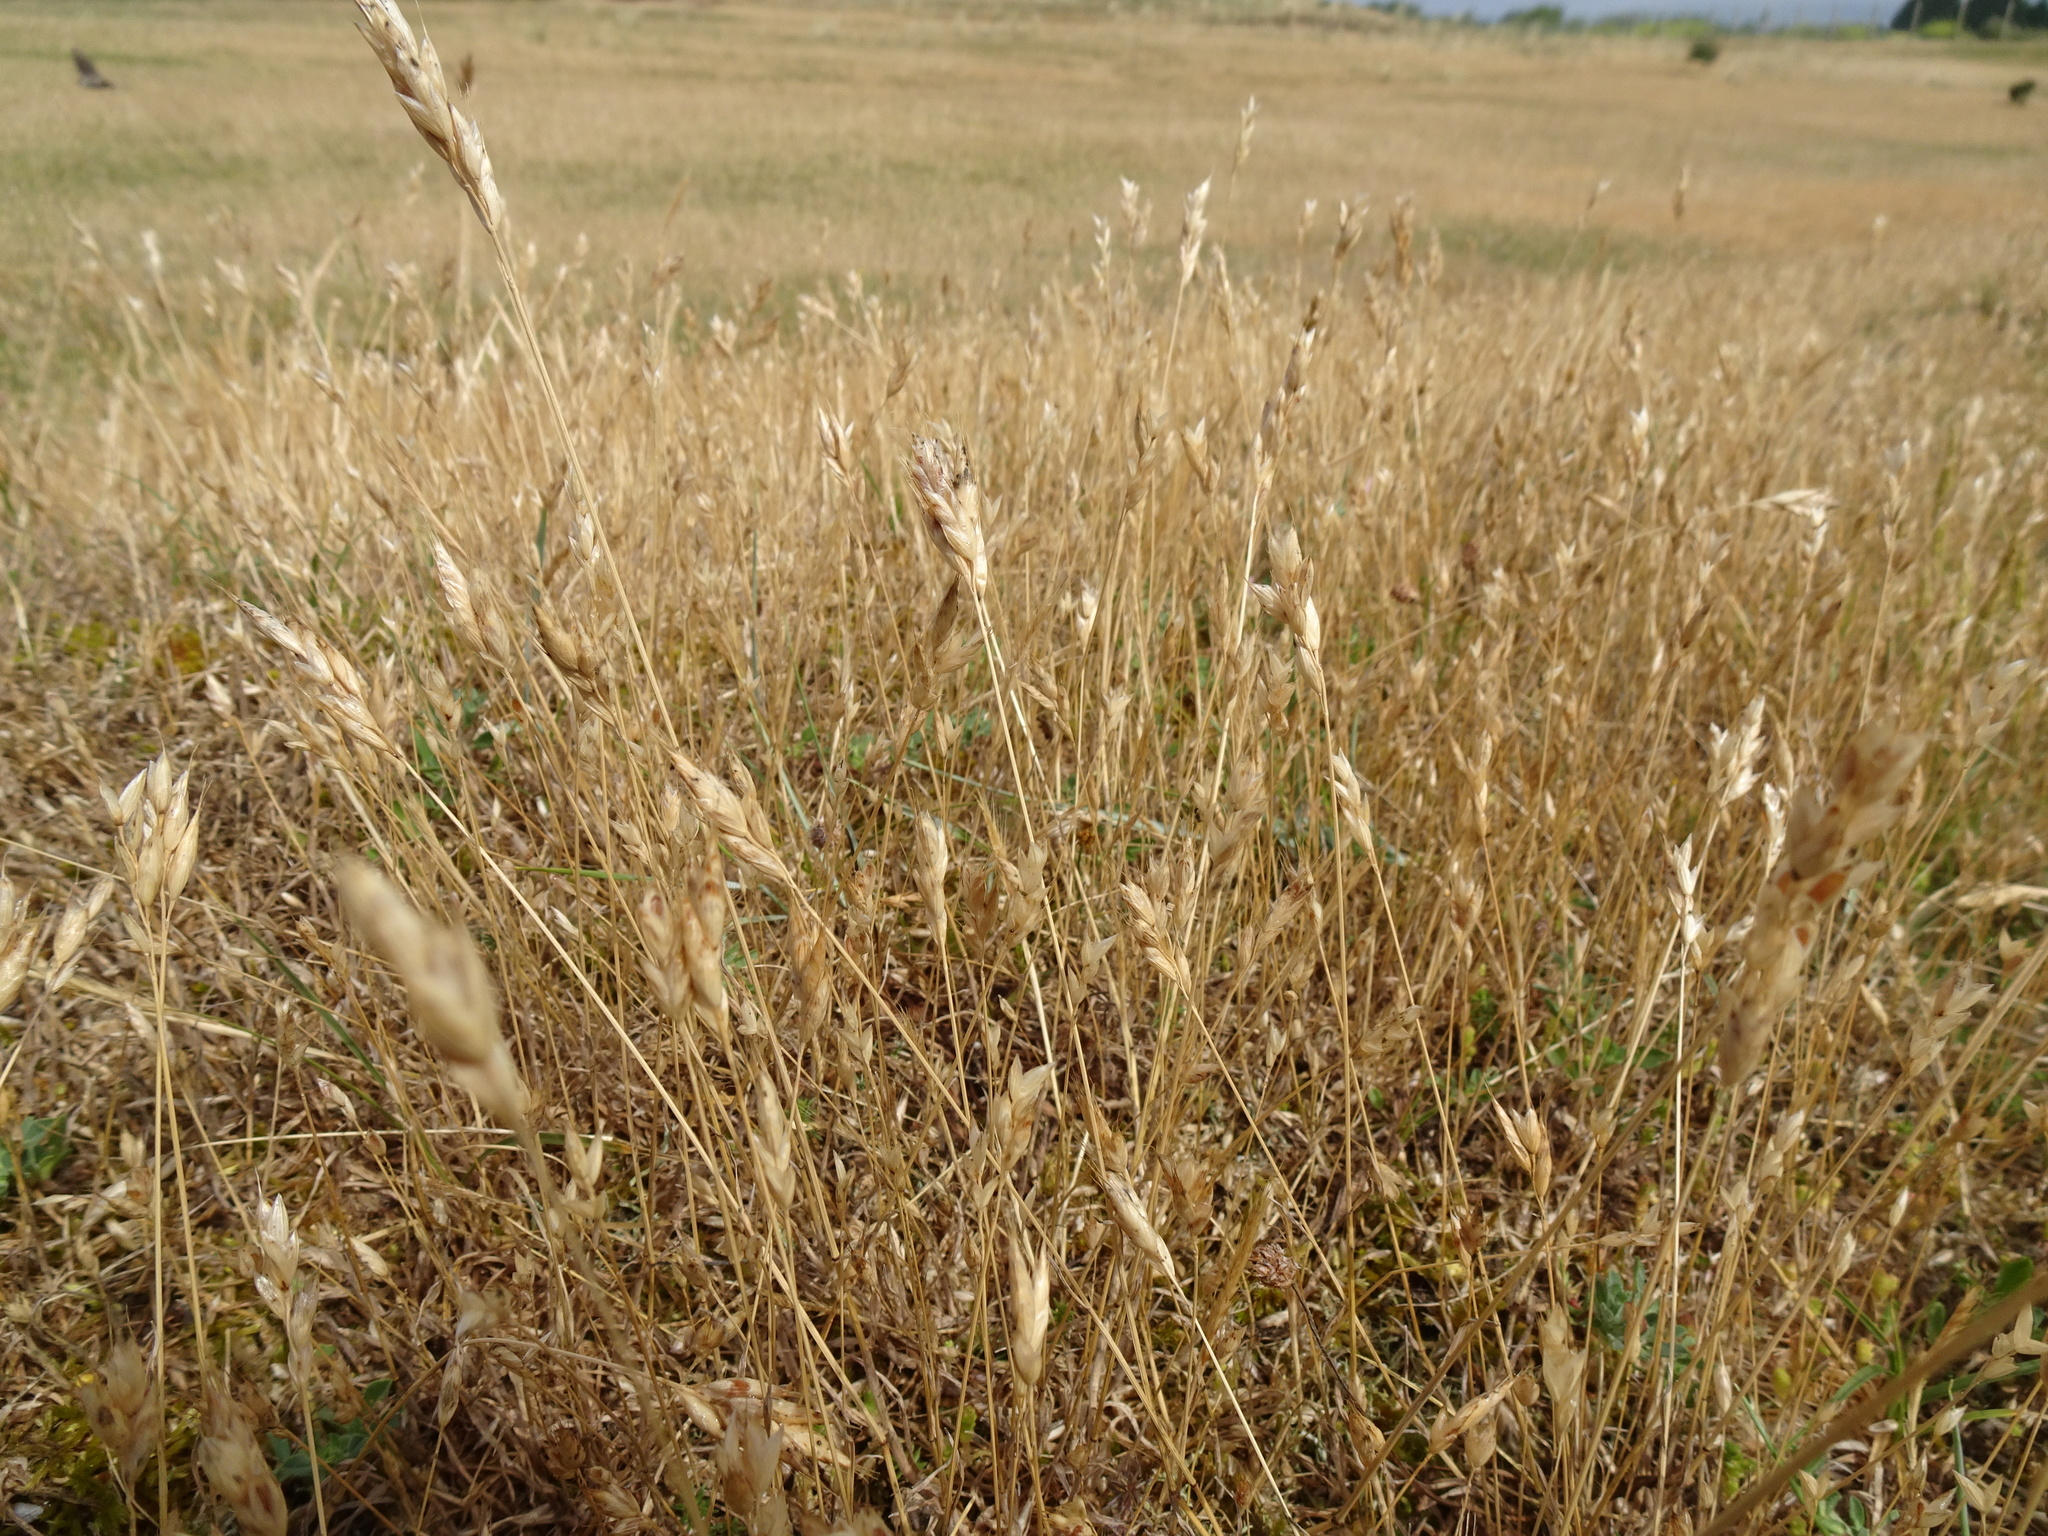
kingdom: Plantae
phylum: Tracheophyta
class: Liliopsida
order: Poales
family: Poaceae
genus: Danthonia
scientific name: Danthonia decumbens
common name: Common heathgrass
